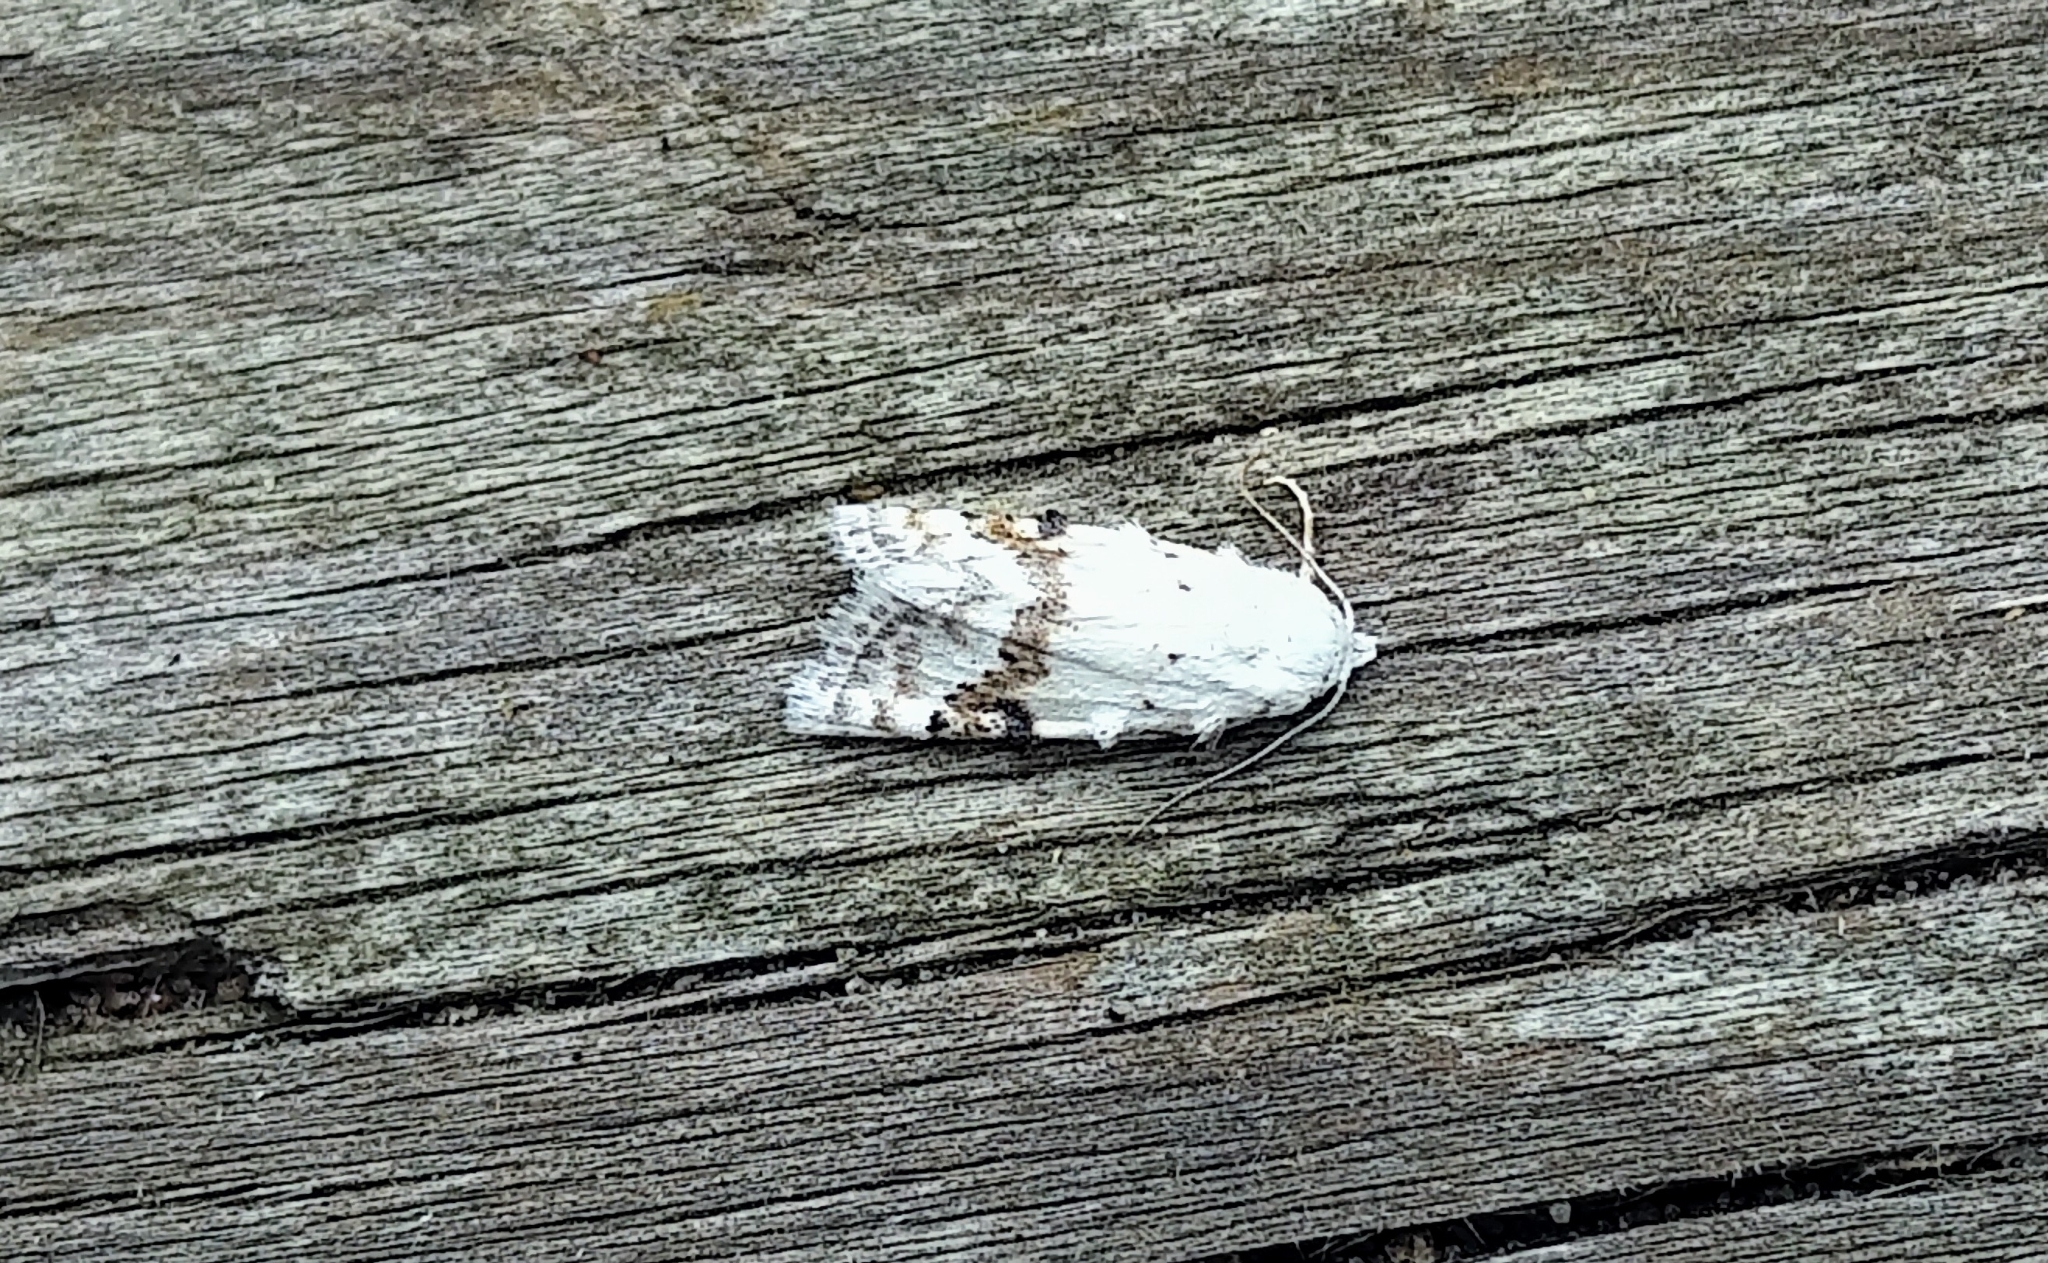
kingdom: Animalia
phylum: Arthropoda
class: Insecta
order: Lepidoptera
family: Nolidae
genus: Nola
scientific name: Nola cilicoides
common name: Blurry-patched nola moth
